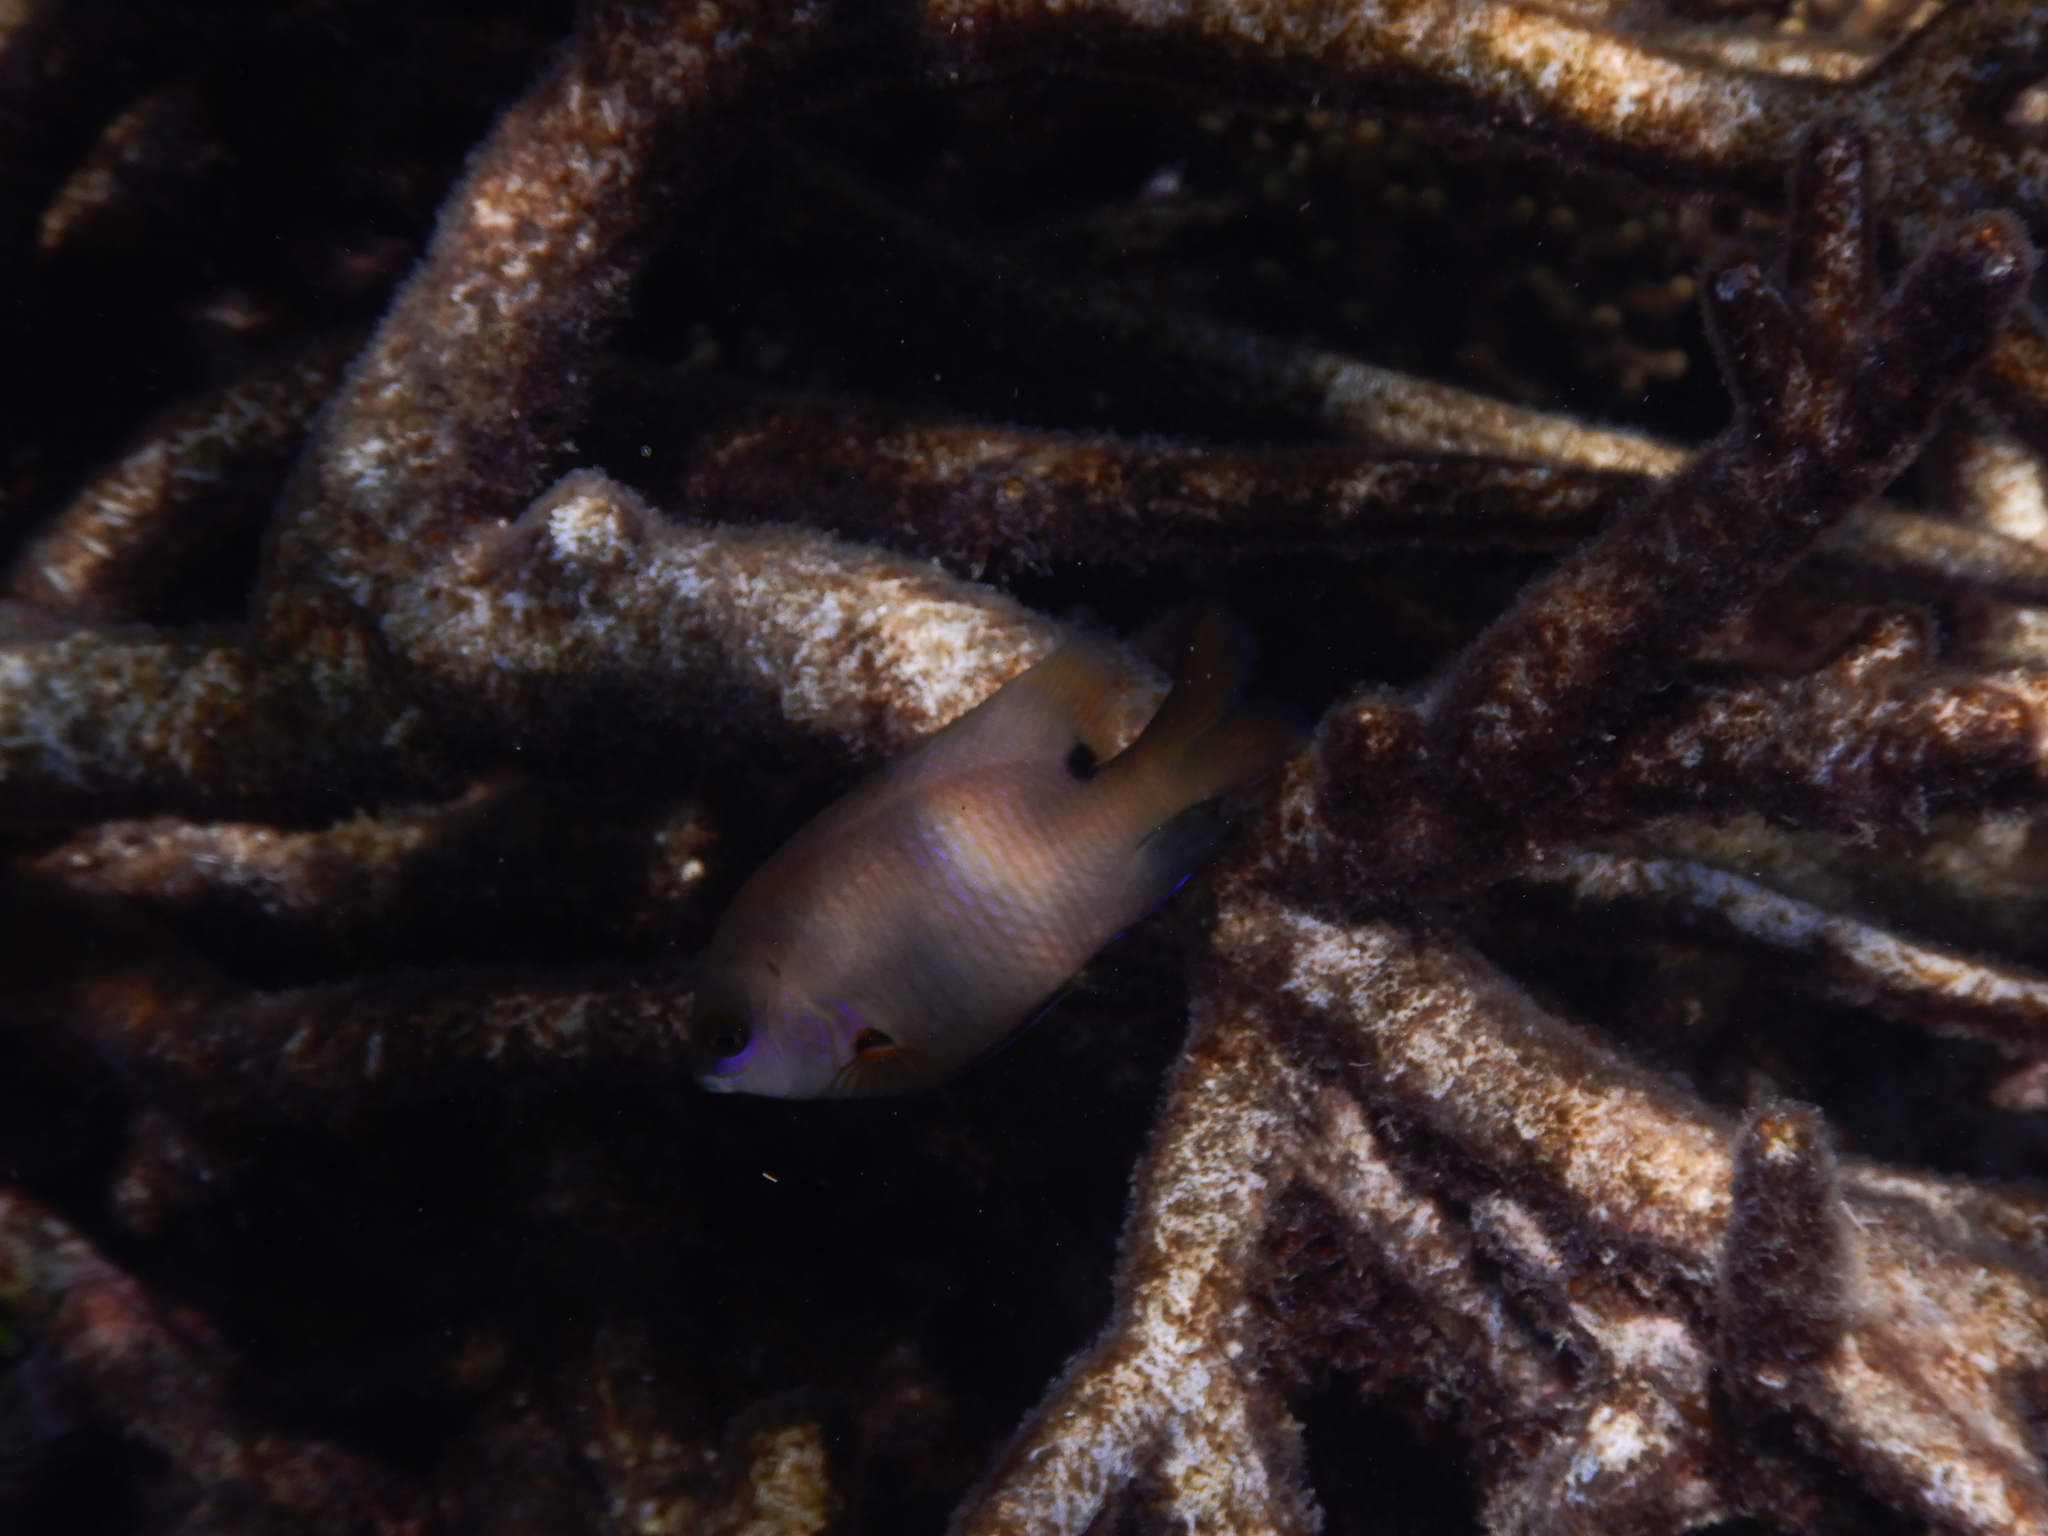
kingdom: Animalia
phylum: Chordata
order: Perciformes
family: Pomacentridae
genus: Stegastes
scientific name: Stegastes nigricans
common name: Dusky gregory
